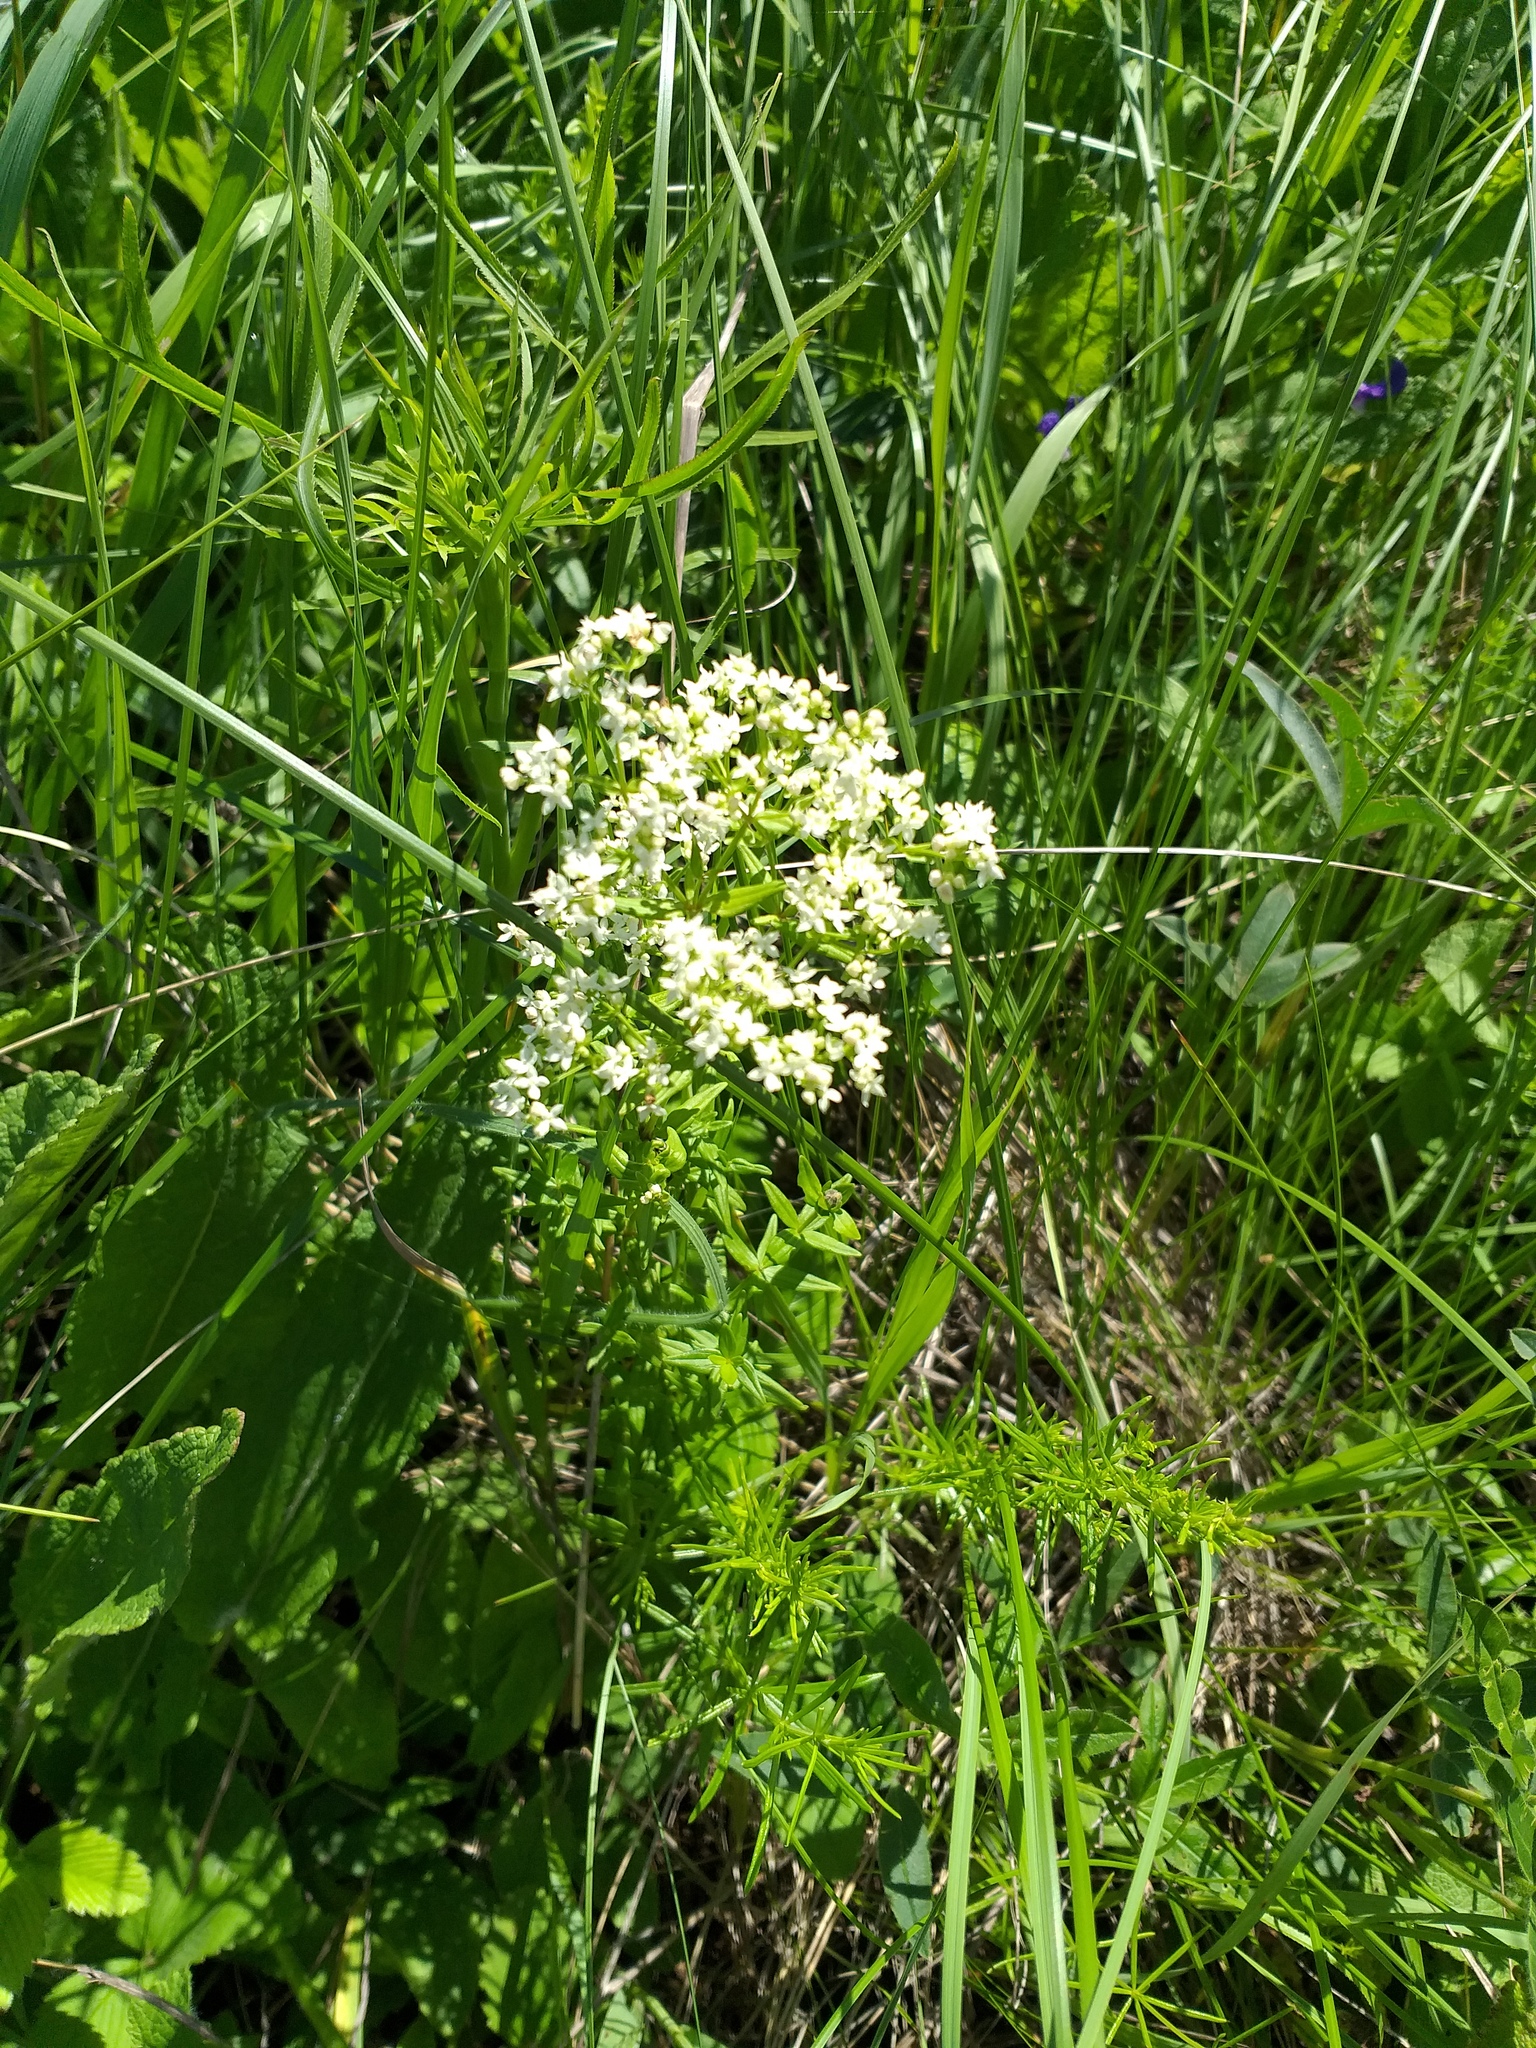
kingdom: Plantae
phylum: Tracheophyta
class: Magnoliopsida
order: Gentianales
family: Rubiaceae
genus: Galium
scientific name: Galium rubioides
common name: European bedstraw
